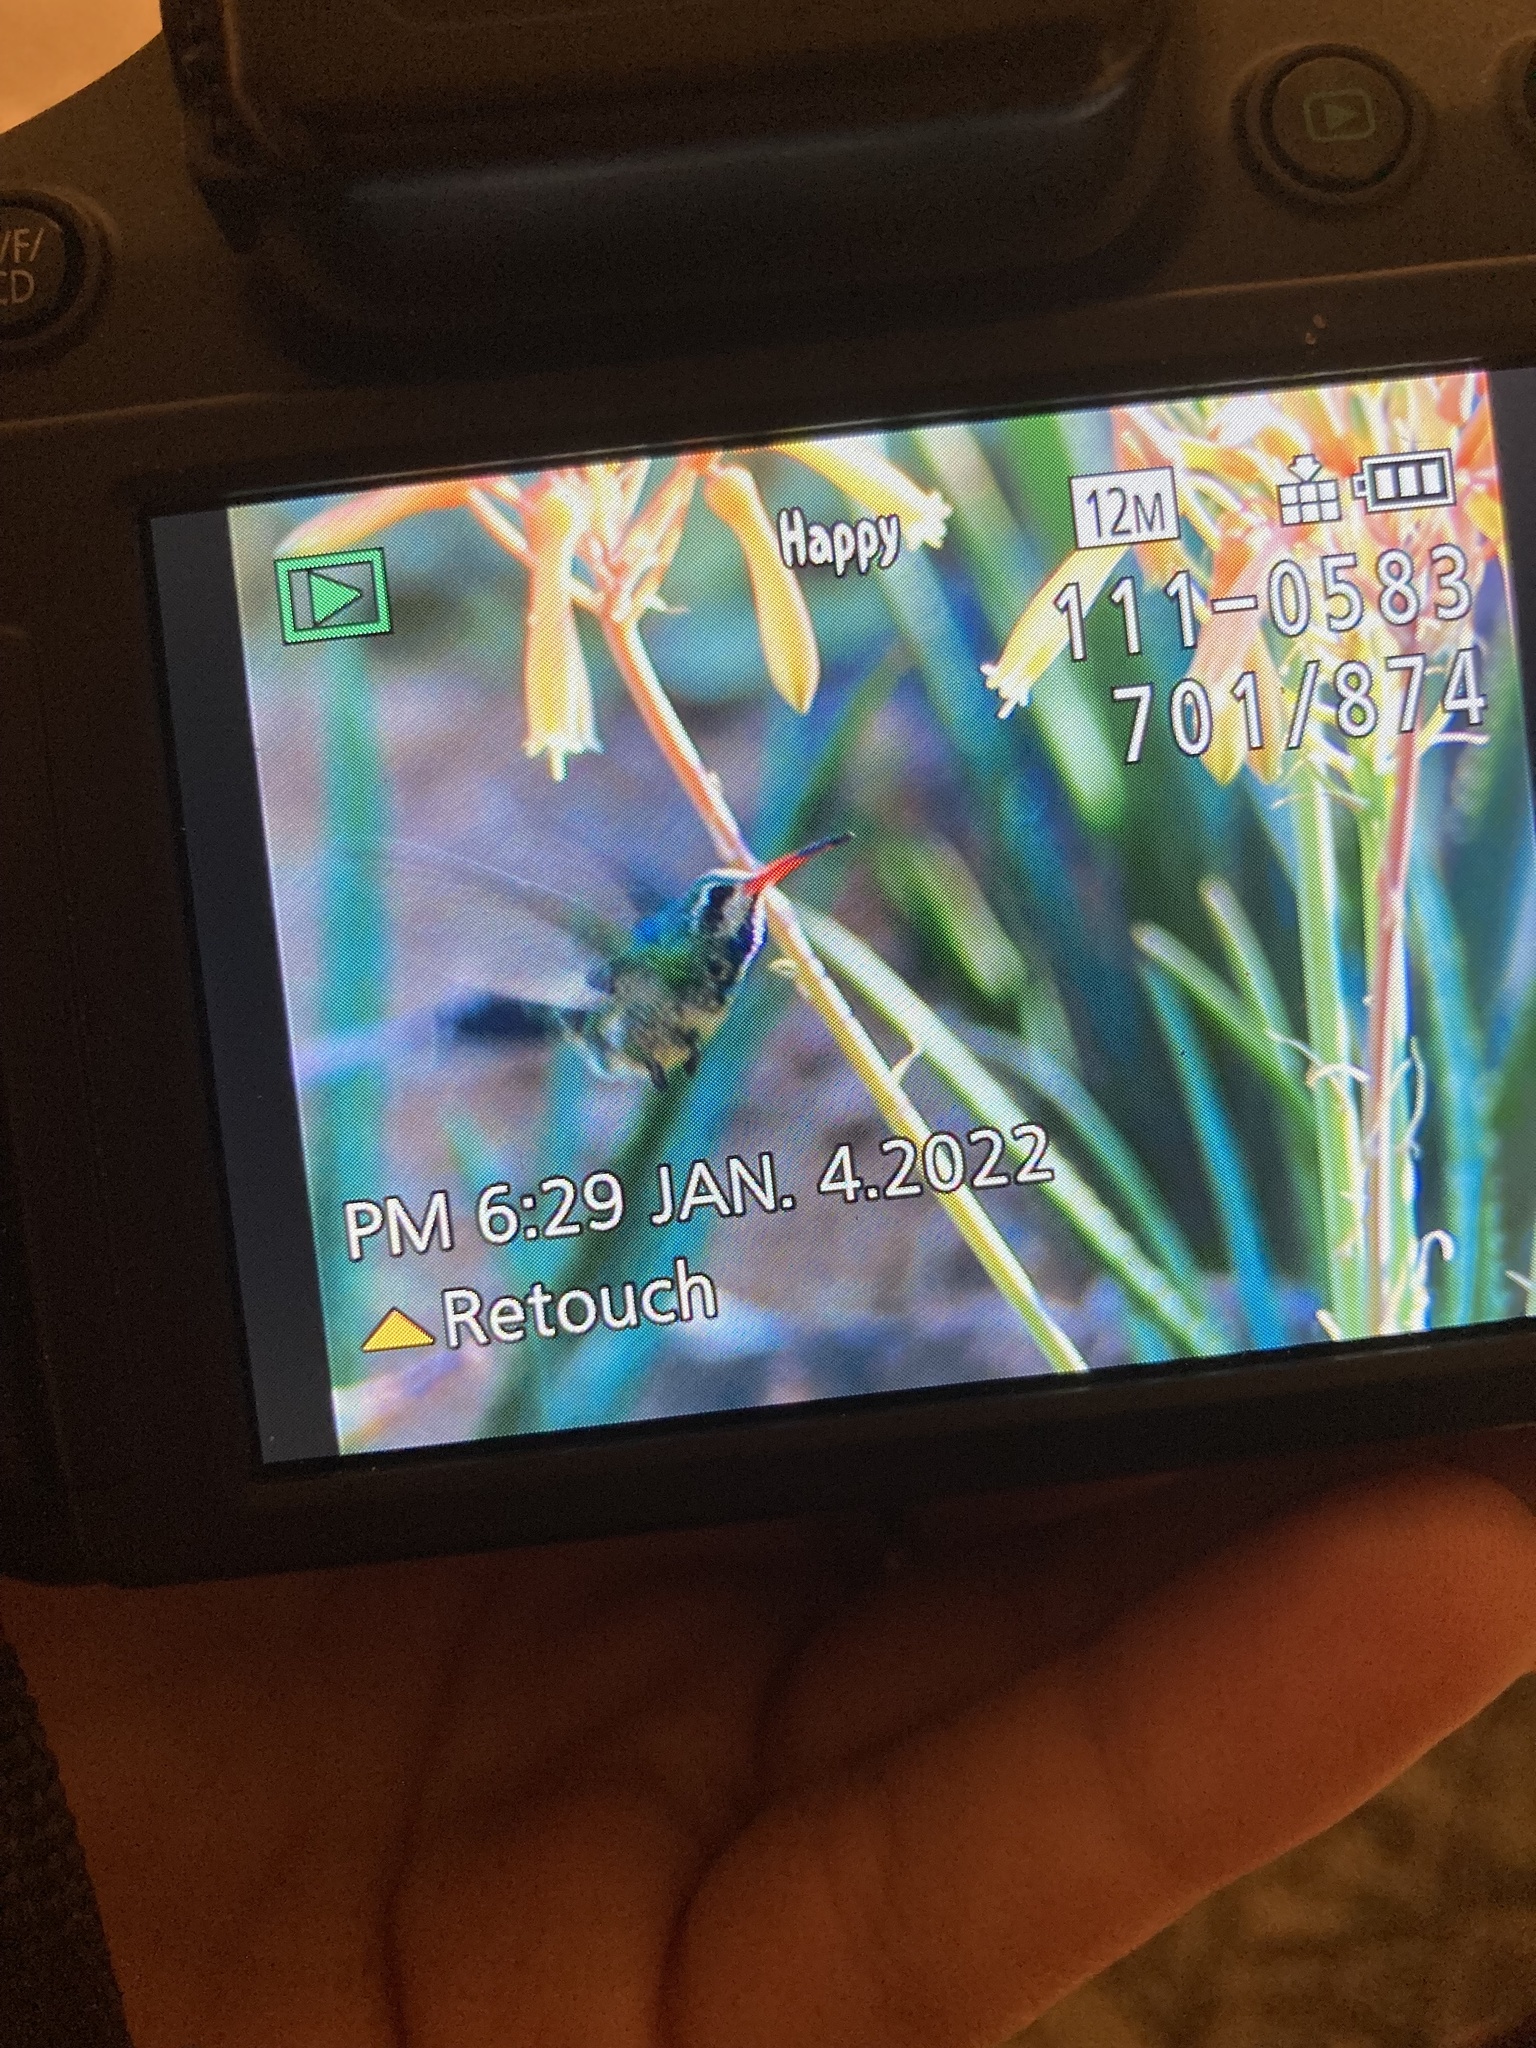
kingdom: Animalia
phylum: Chordata
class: Aves
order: Apodiformes
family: Trochilidae
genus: Cynanthus
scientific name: Cynanthus latirostris
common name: Broad-billed hummingbird
